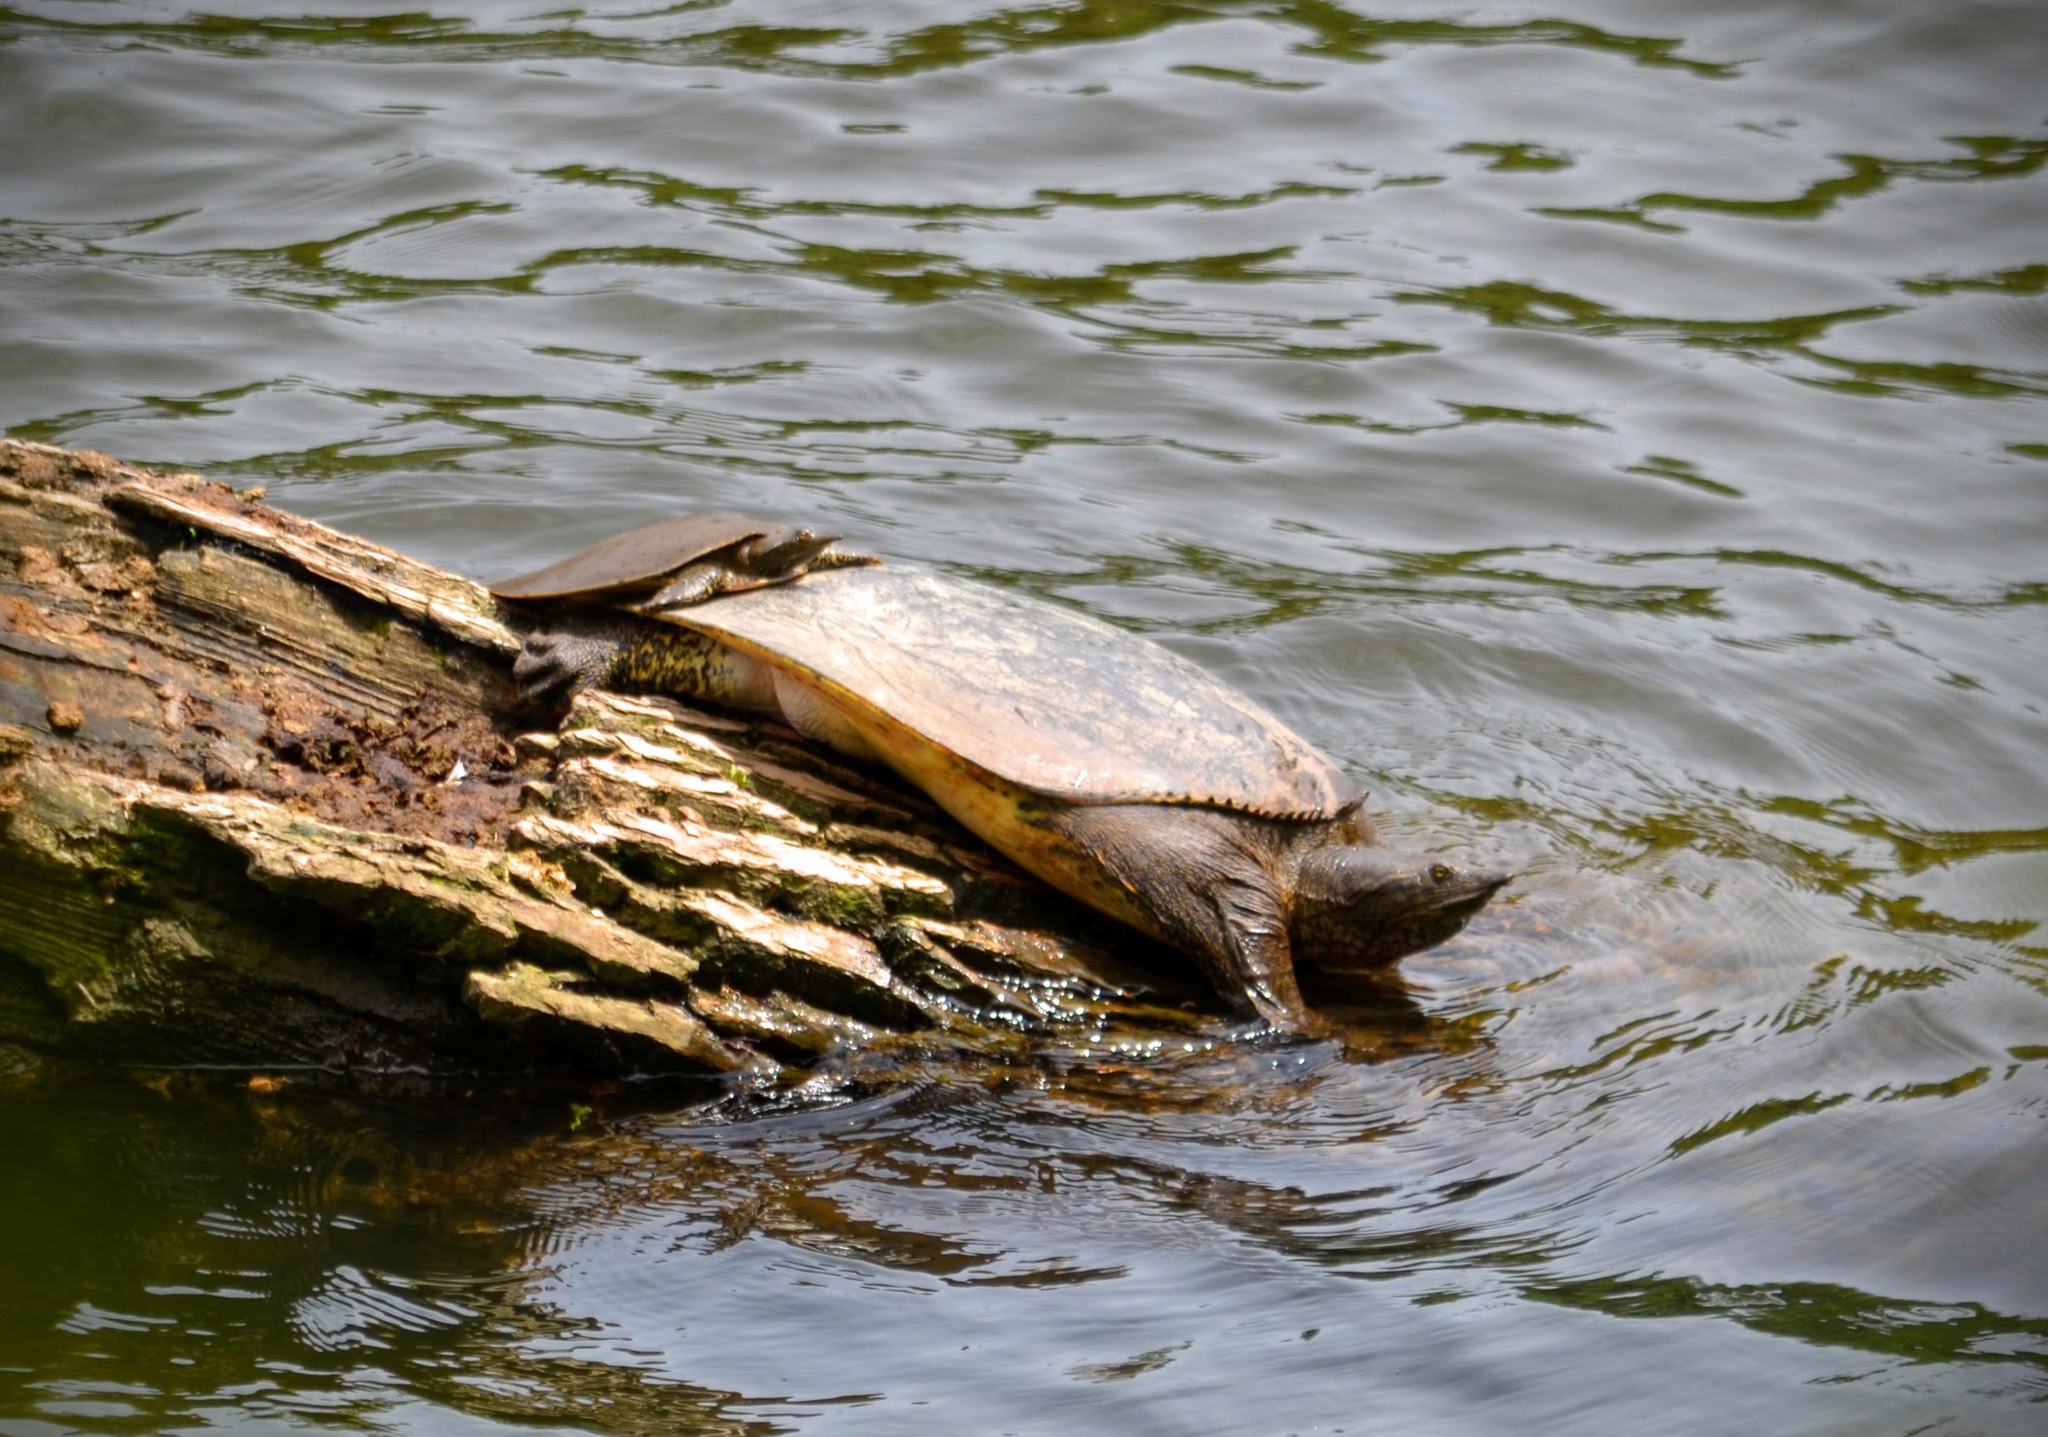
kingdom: Animalia
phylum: Chordata
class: Testudines
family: Trionychidae
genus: Apalone
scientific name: Apalone spinifera
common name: Spiny softshell turtle
